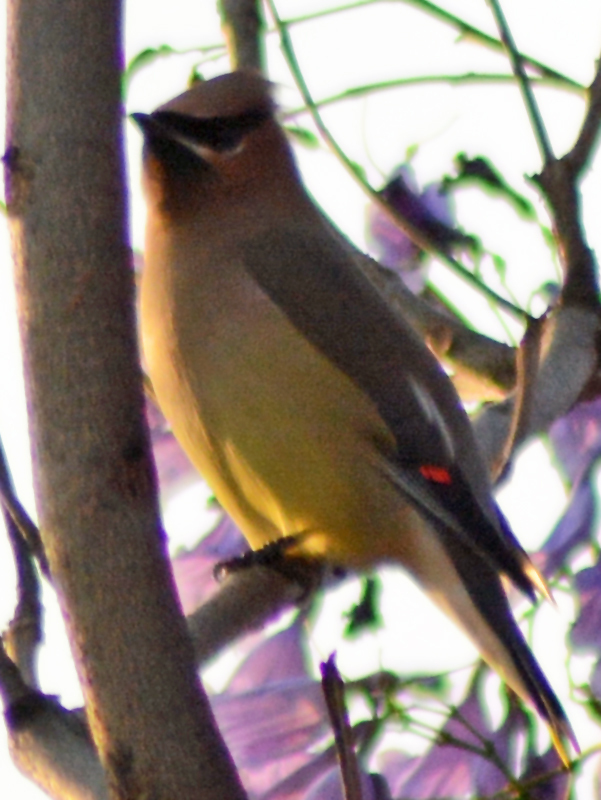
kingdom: Animalia
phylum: Chordata
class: Aves
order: Passeriformes
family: Bombycillidae
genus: Bombycilla
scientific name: Bombycilla cedrorum
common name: Cedar waxwing
